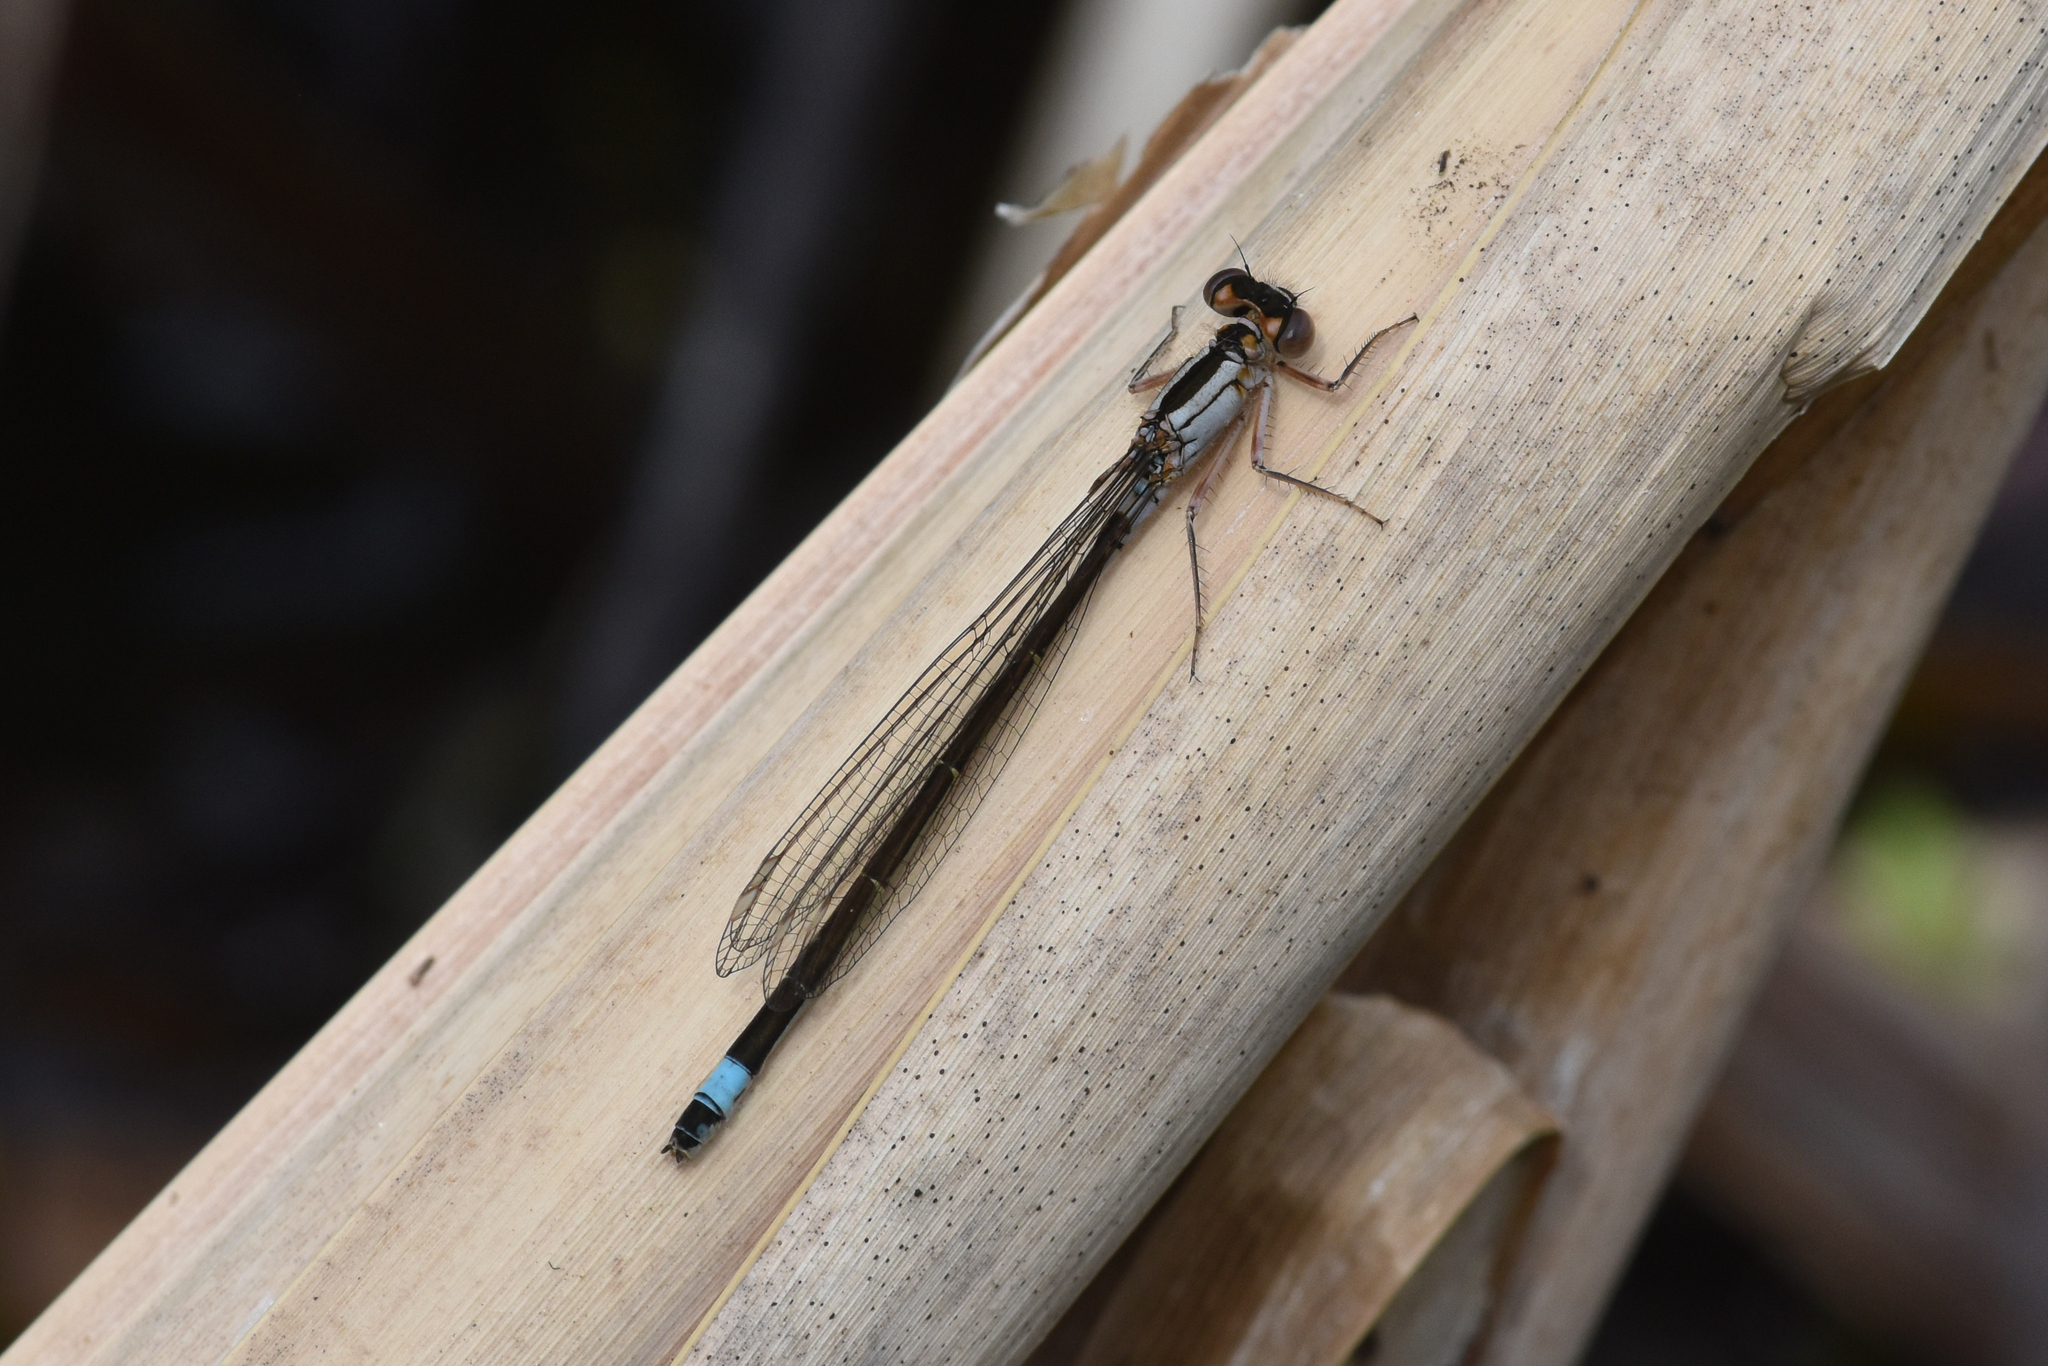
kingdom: Animalia
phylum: Arthropoda
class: Insecta
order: Odonata
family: Coenagrionidae
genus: Ischnura
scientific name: Ischnura cervula
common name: Pacific forktail
